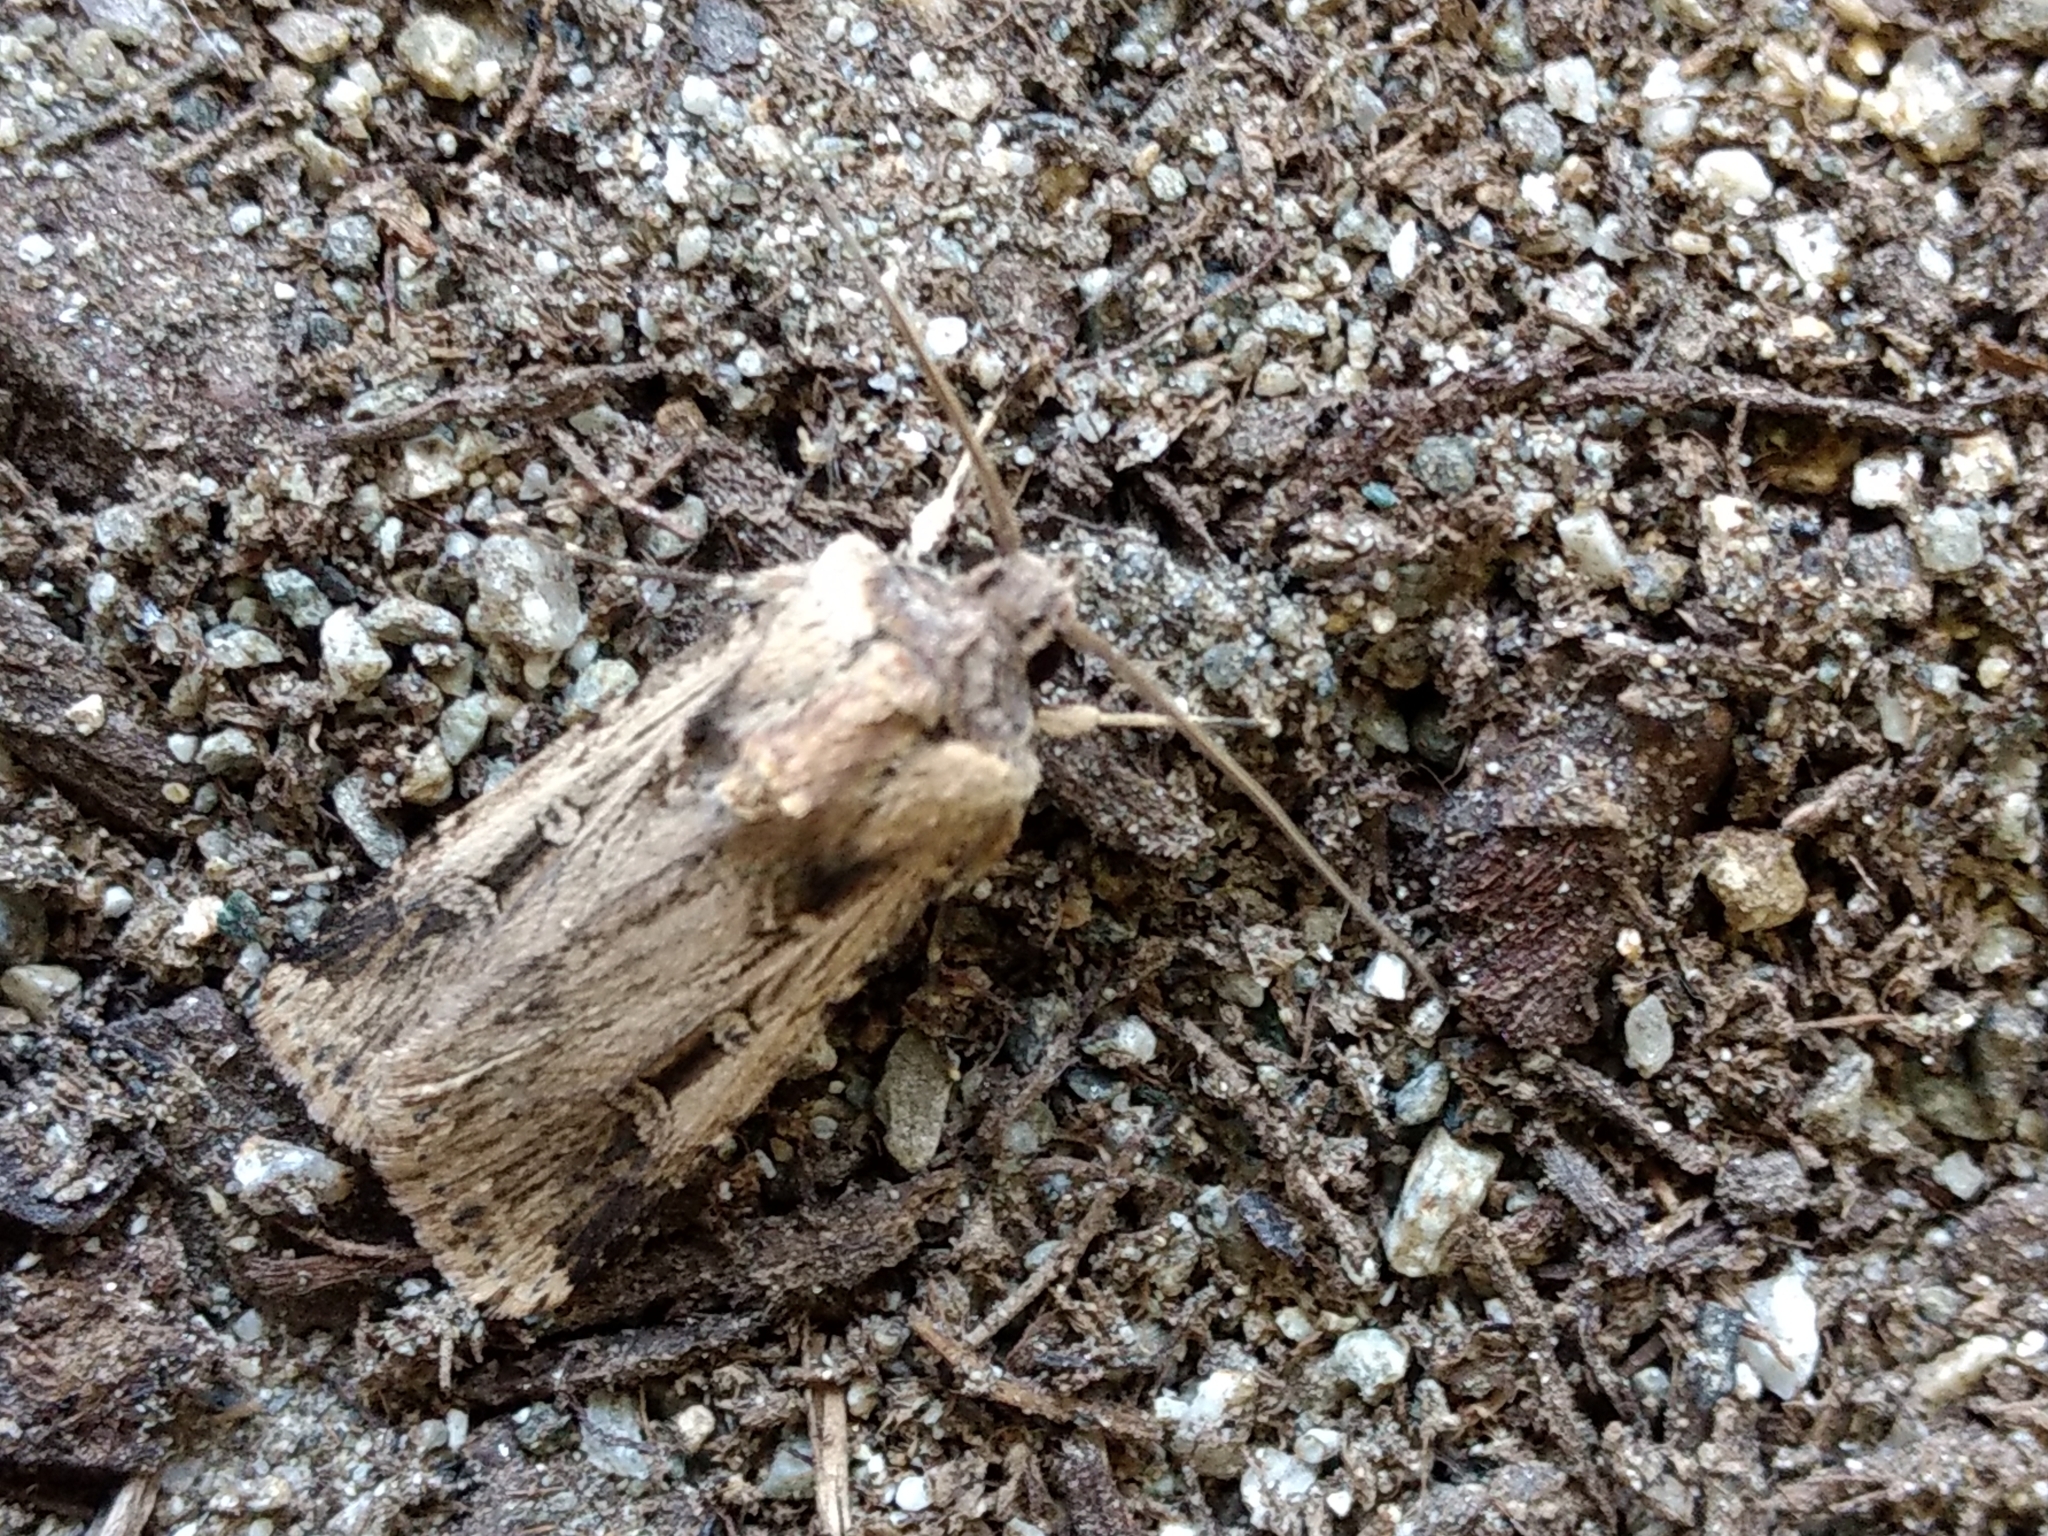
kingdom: Animalia
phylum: Arthropoda
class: Insecta
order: Lepidoptera
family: Noctuidae
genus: Feltia
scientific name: Feltia subterranea
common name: Granulate cutworm
